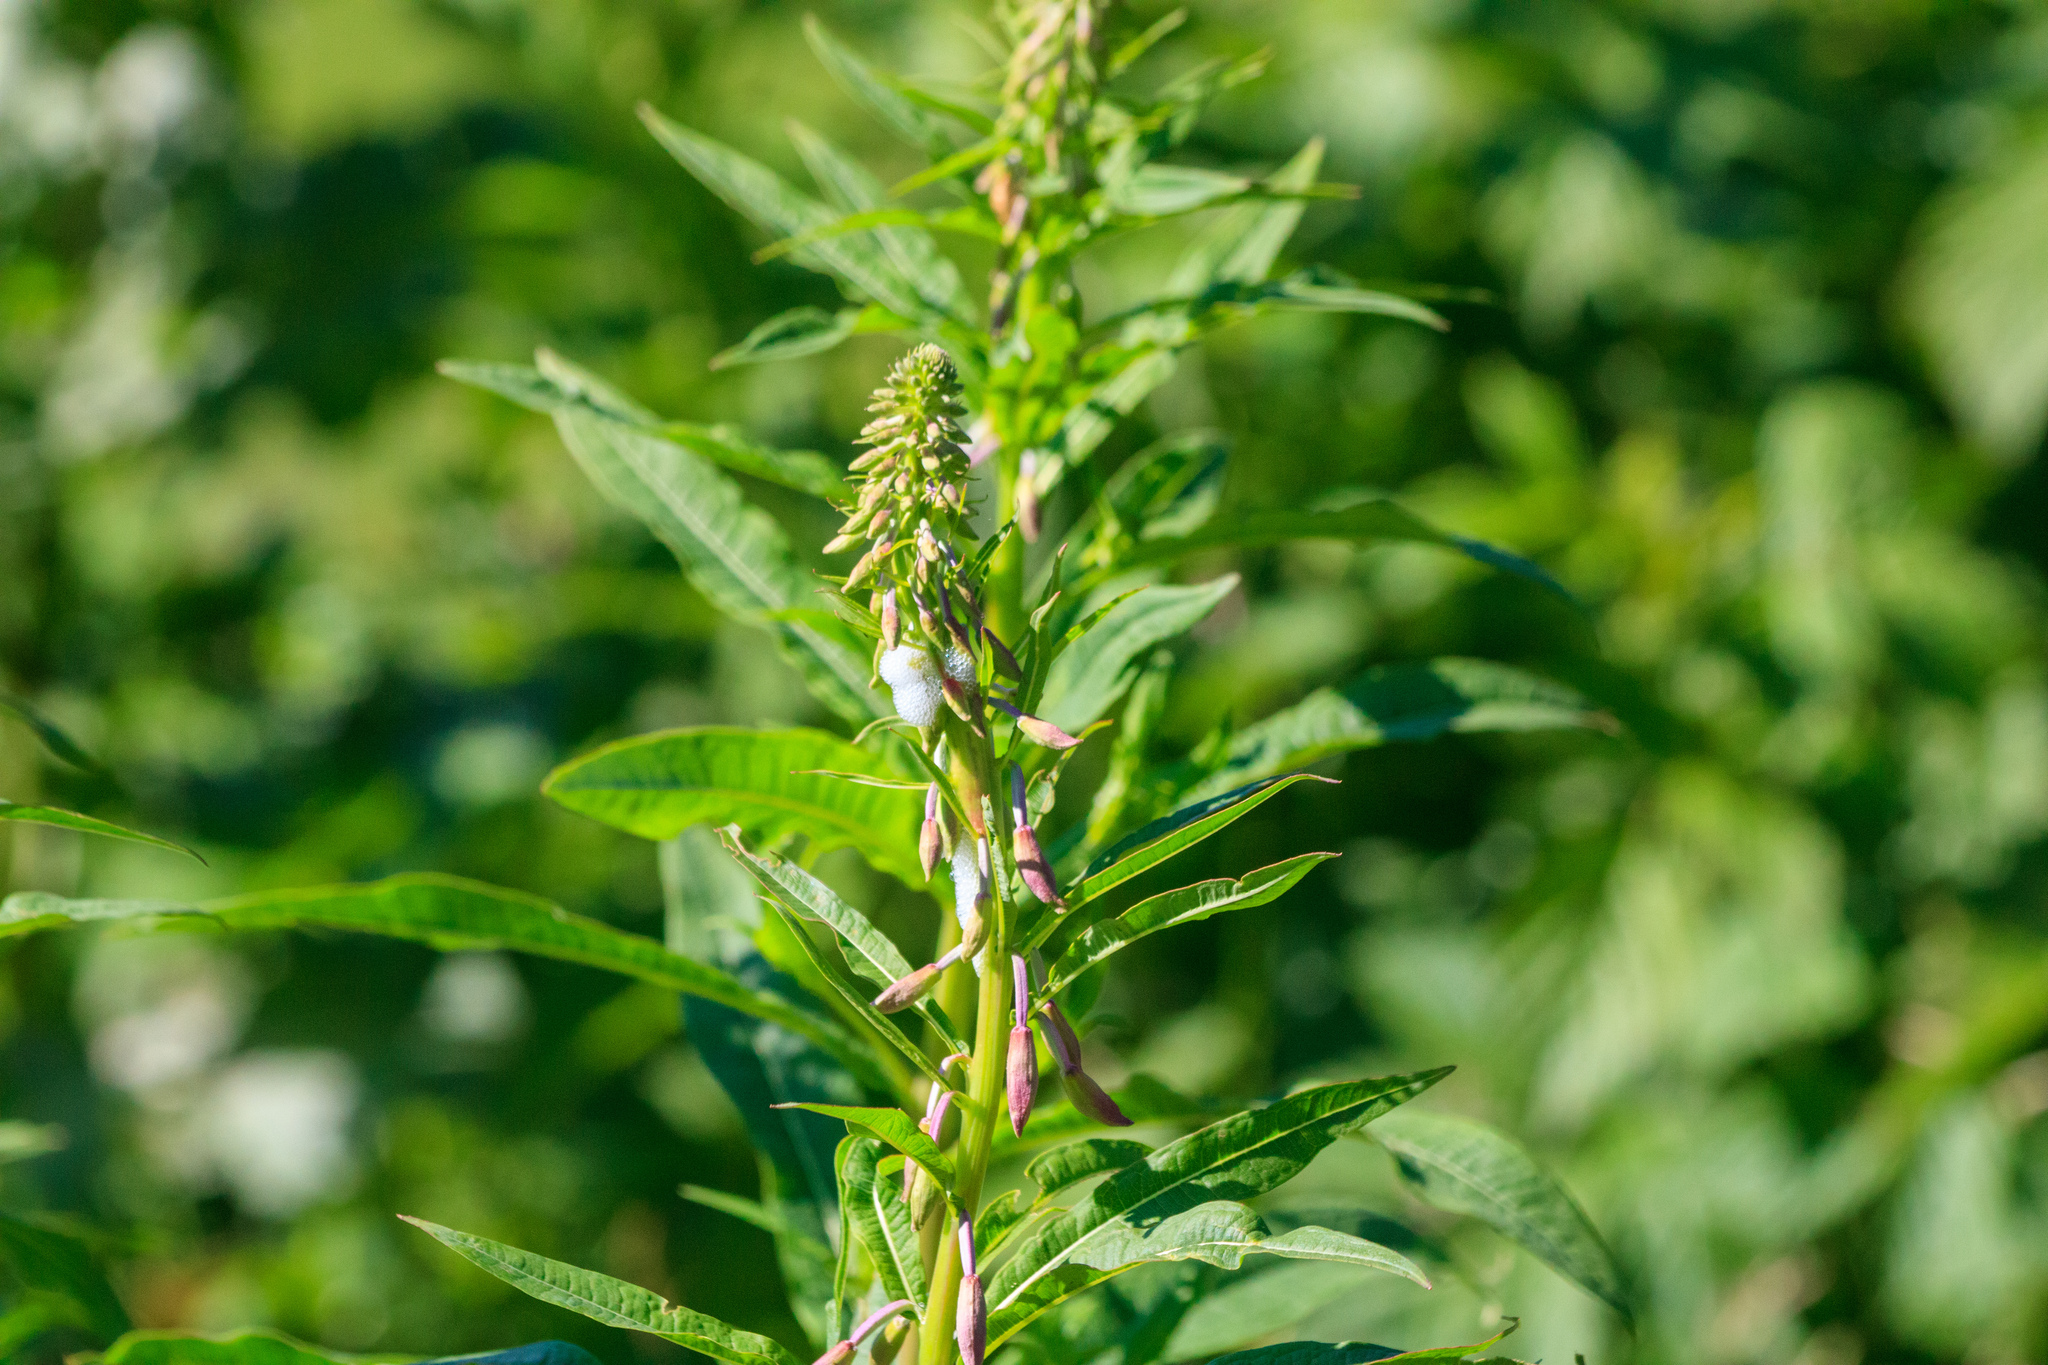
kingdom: Plantae
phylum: Tracheophyta
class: Magnoliopsida
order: Myrtales
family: Onagraceae
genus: Chamaenerion
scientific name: Chamaenerion angustifolium
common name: Fireweed
